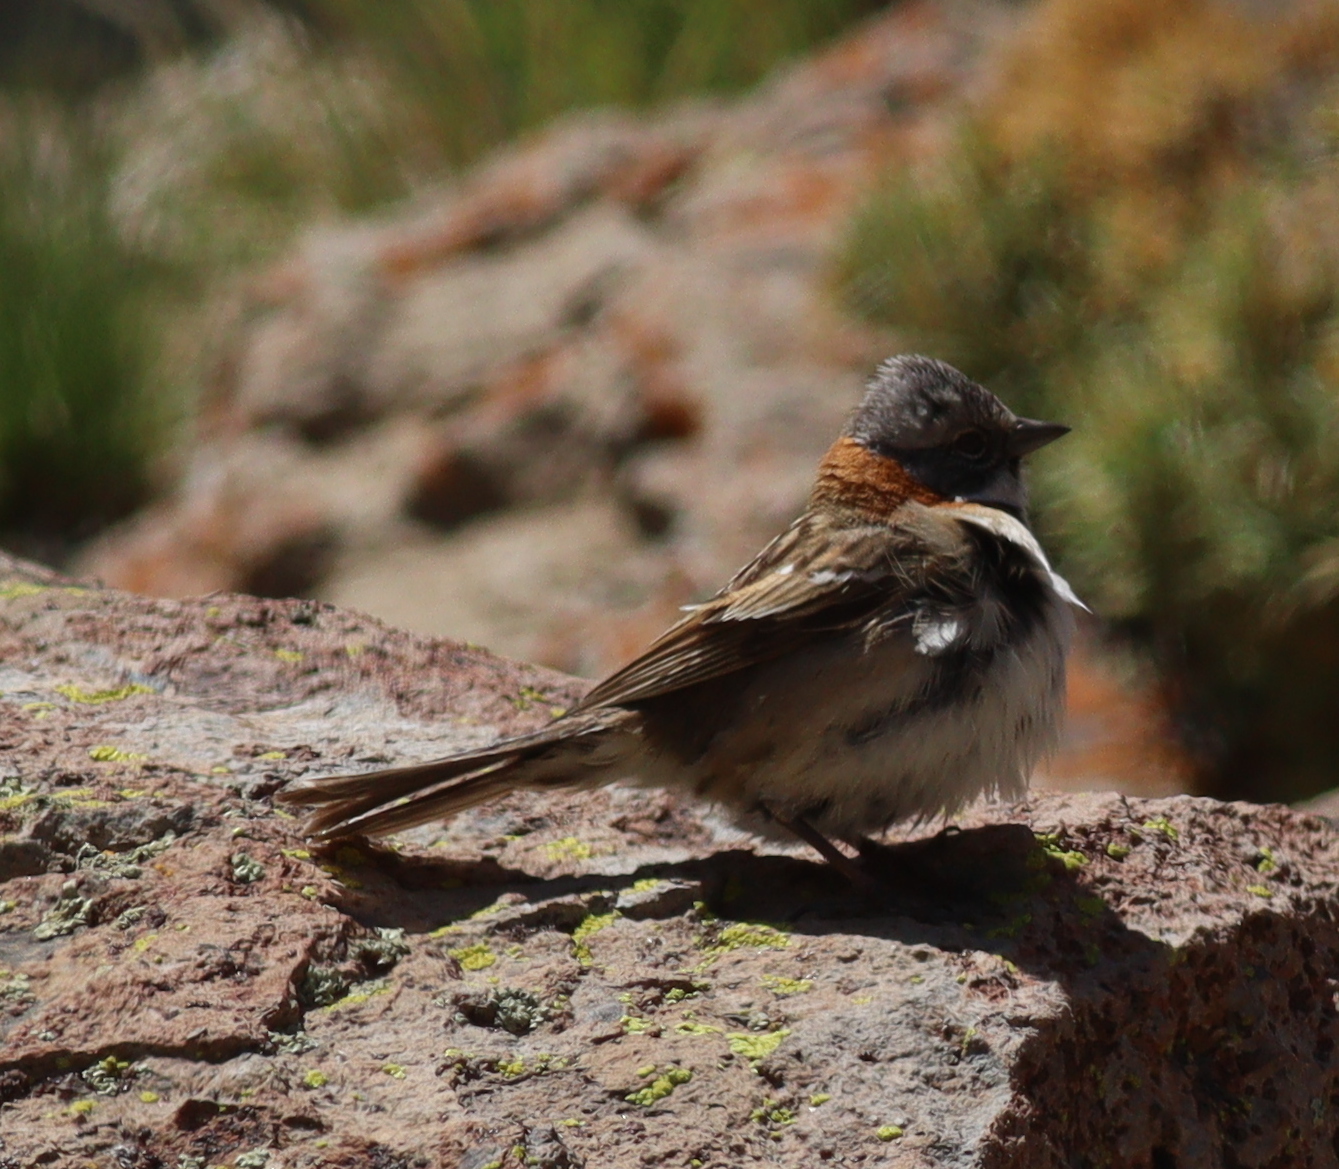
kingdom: Animalia
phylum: Chordata
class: Aves
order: Passeriformes
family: Passerellidae
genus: Zonotrichia
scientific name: Zonotrichia capensis
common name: Rufous-collared sparrow
